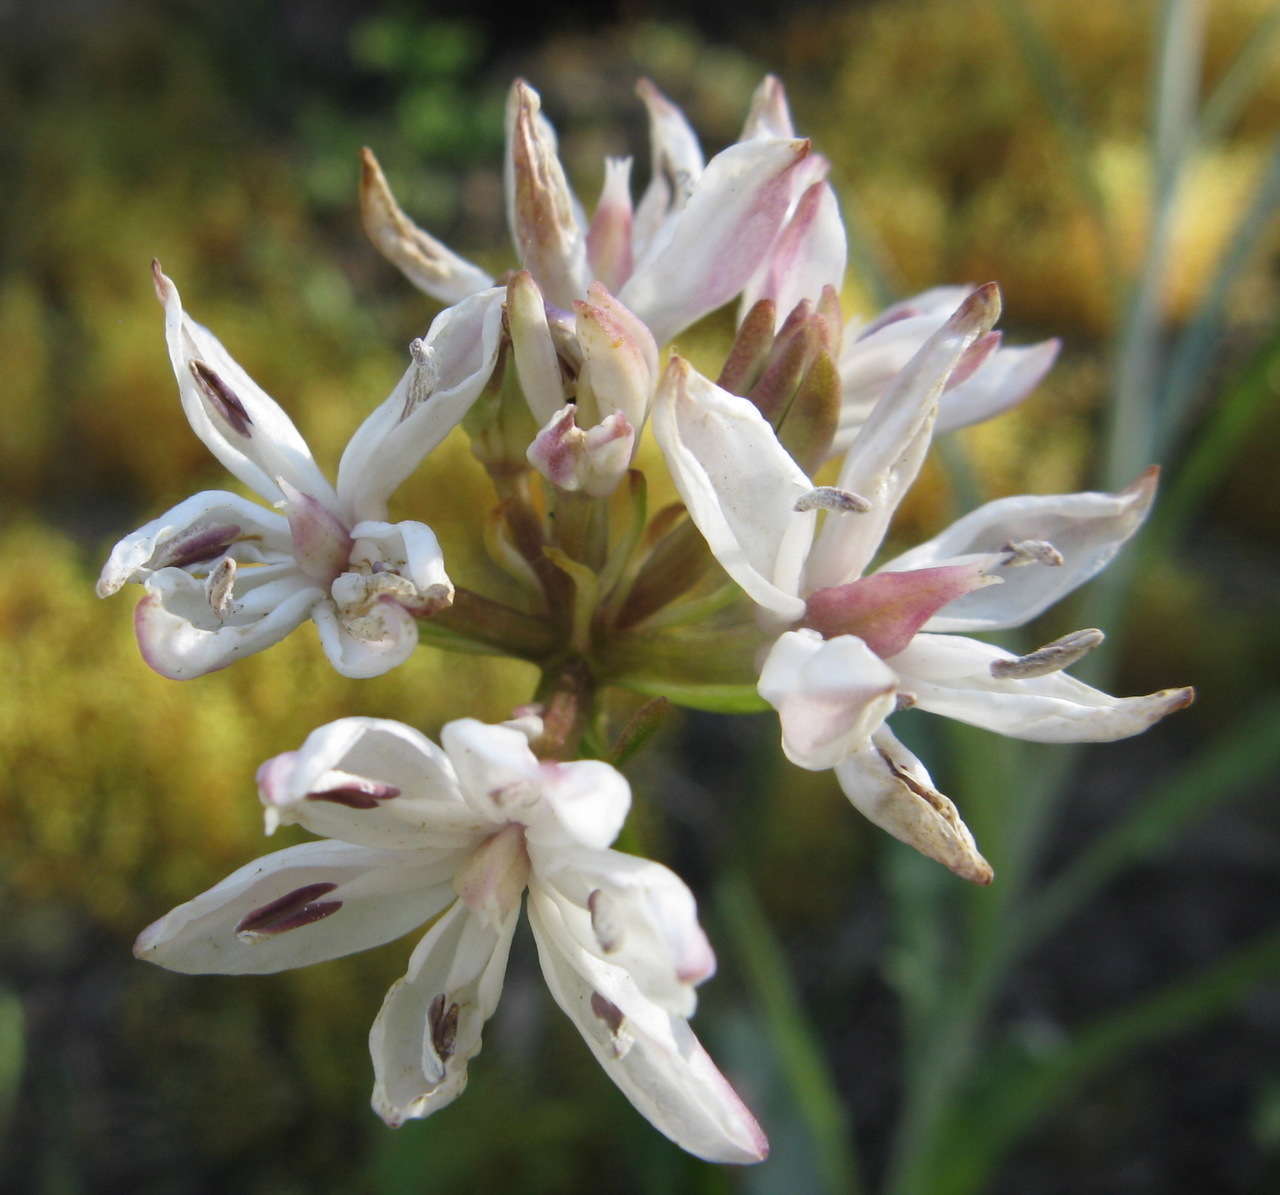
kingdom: Plantae
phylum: Tracheophyta
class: Liliopsida
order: Liliales
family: Colchicaceae
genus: Burchardia
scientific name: Burchardia umbellata
